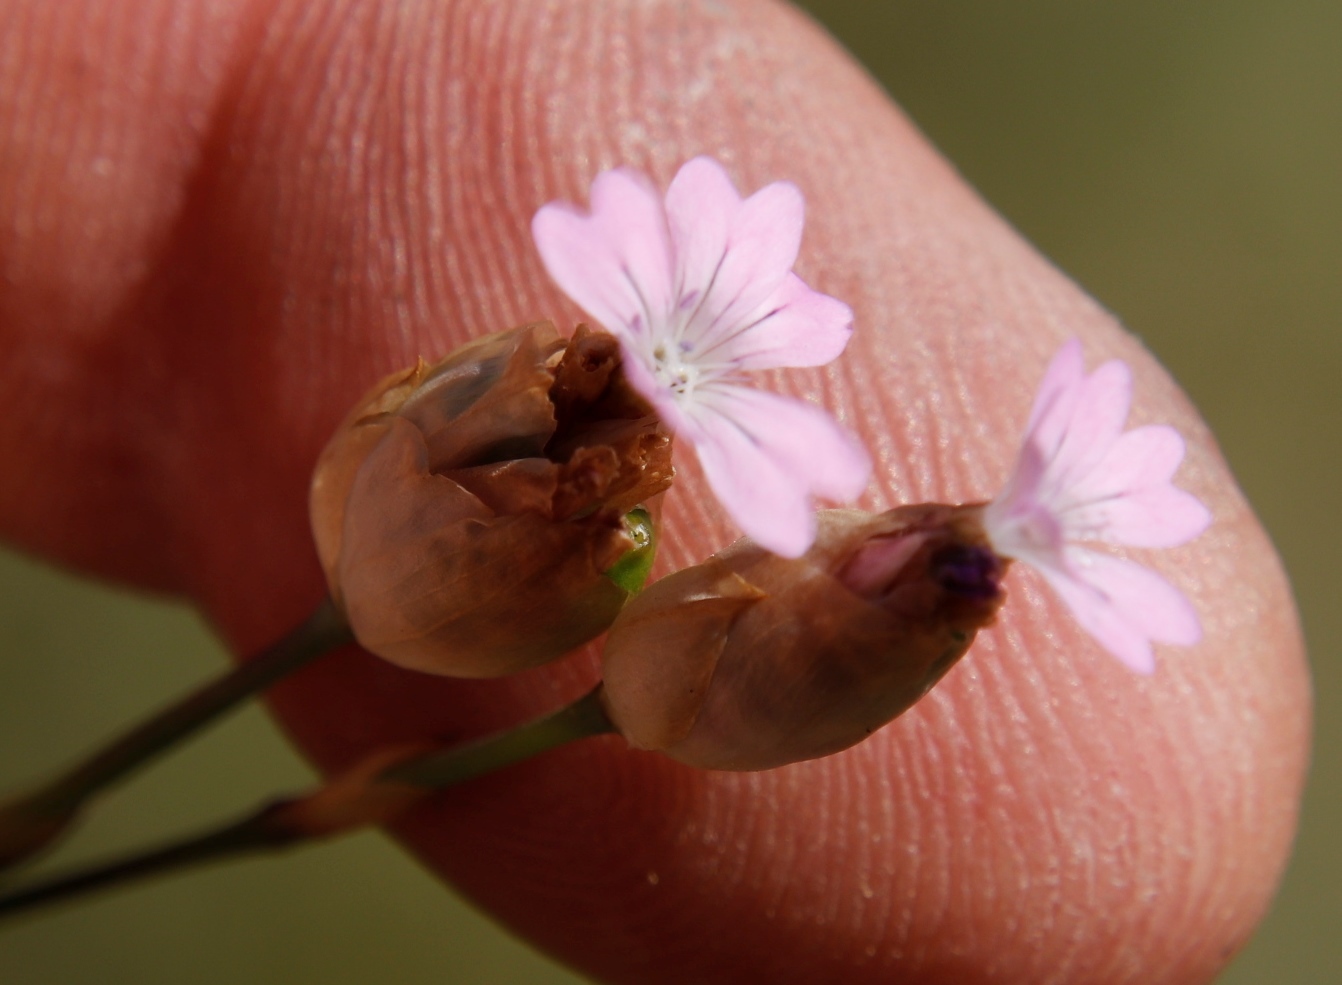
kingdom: Plantae
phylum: Tracheophyta
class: Magnoliopsida
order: Caryophyllales
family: Caryophyllaceae
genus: Petrorhagia
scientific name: Petrorhagia dubia
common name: Hairypink
